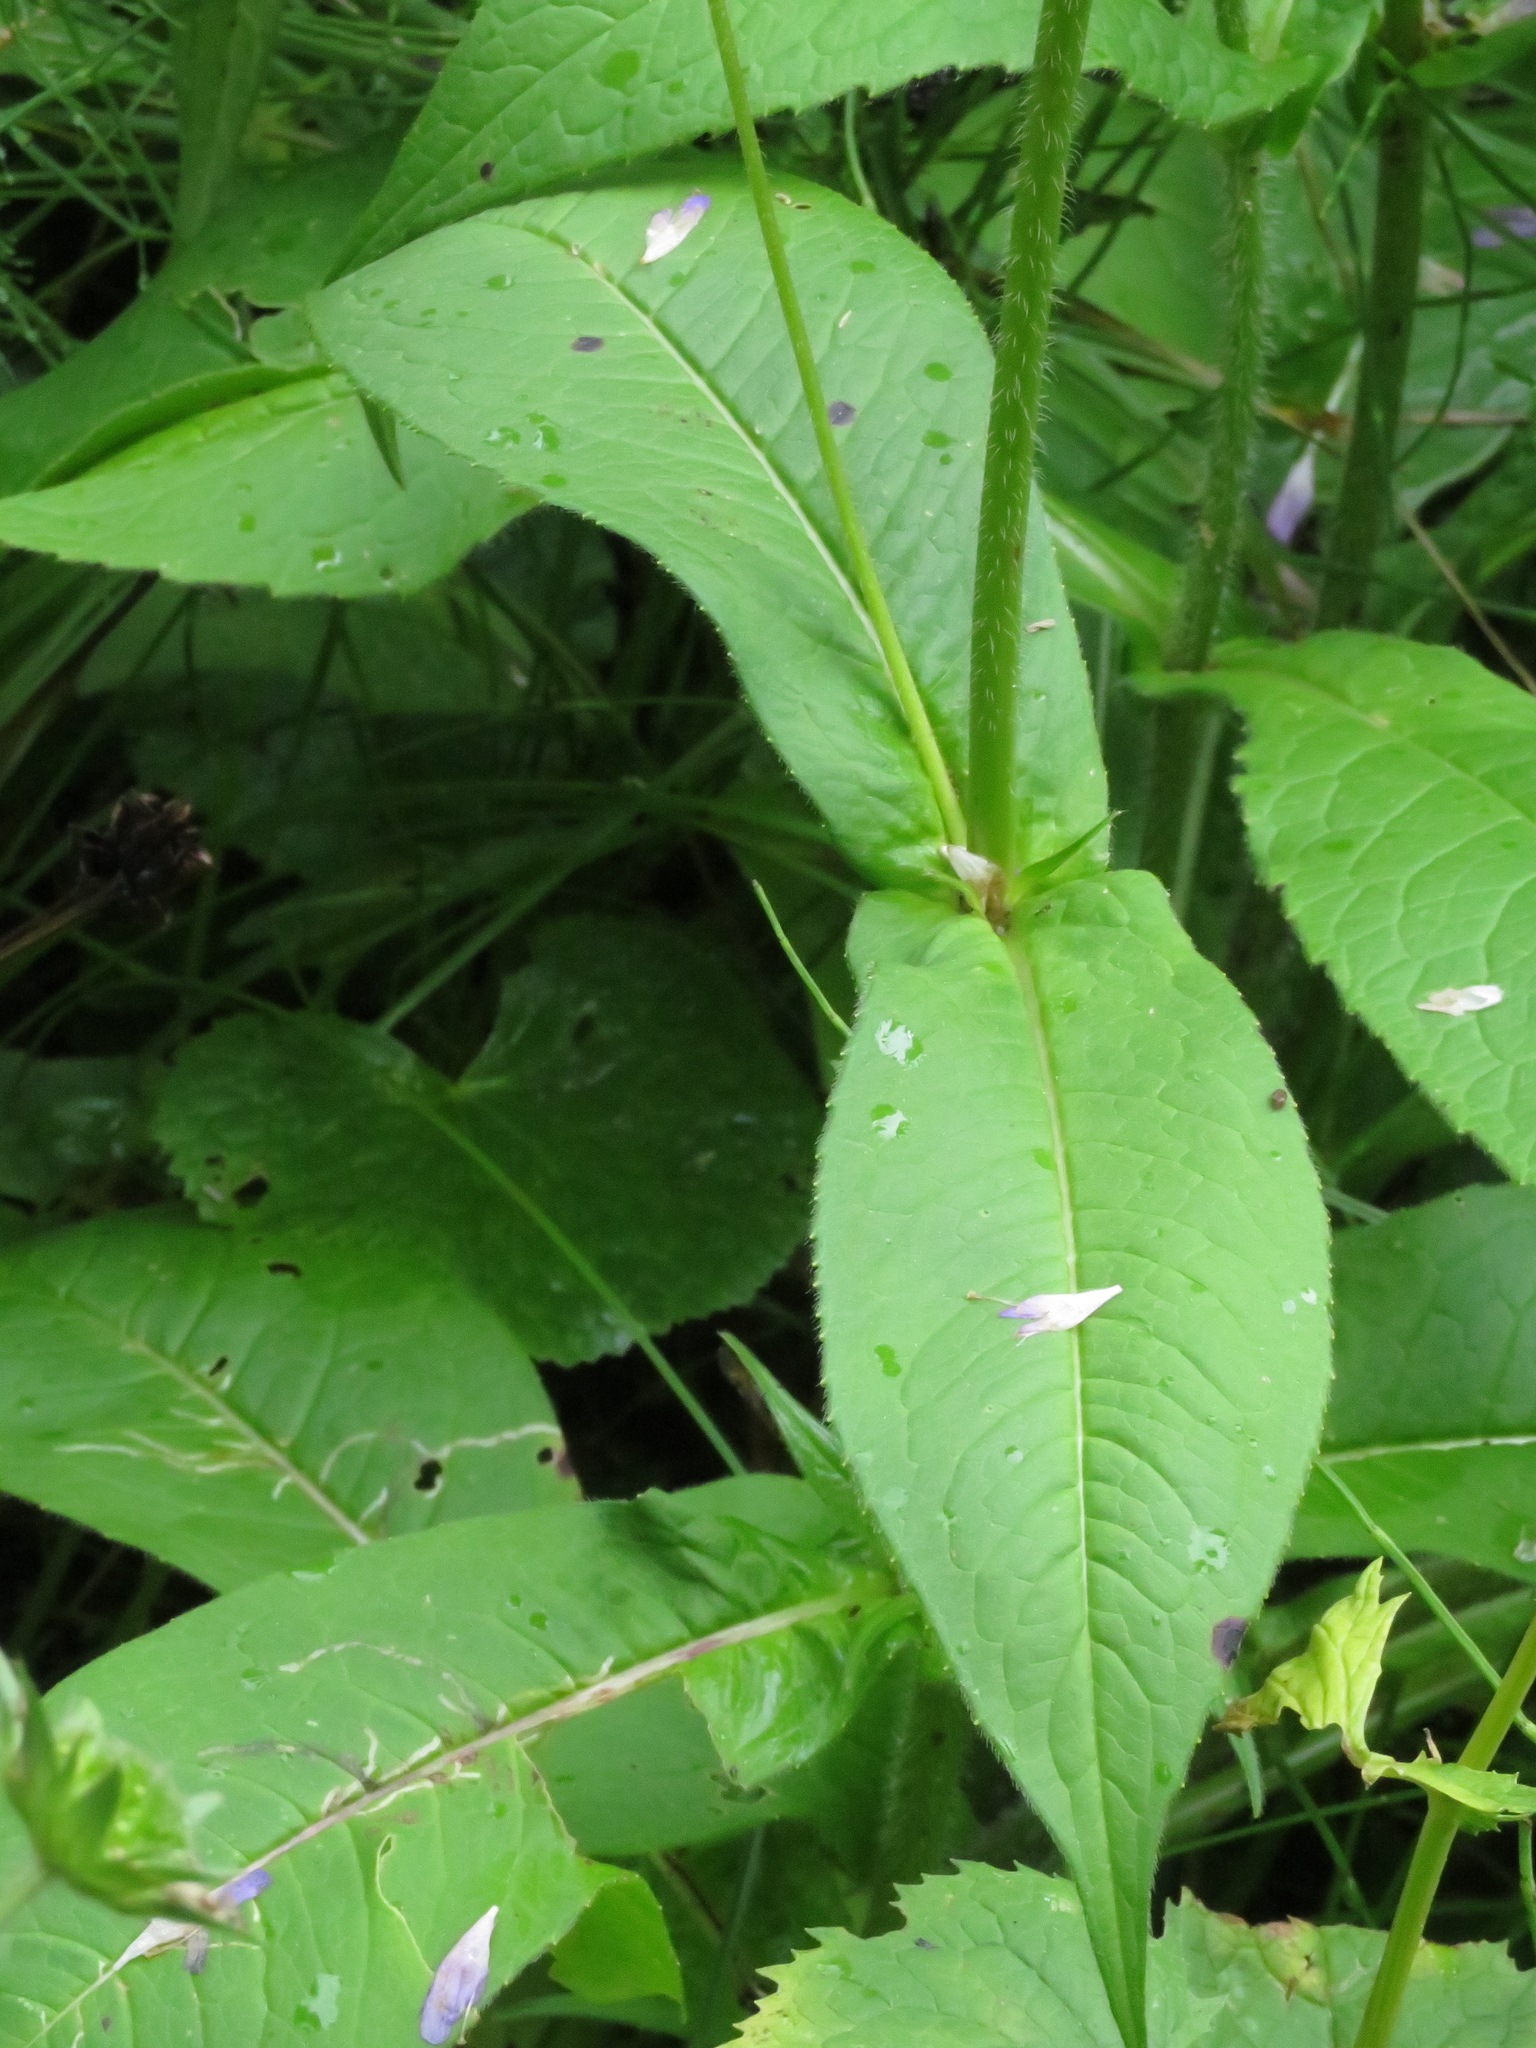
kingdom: Plantae
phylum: Tracheophyta
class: Magnoliopsida
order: Dipsacales
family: Caprifoliaceae
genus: Knautia
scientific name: Knautia dipsacifolia
